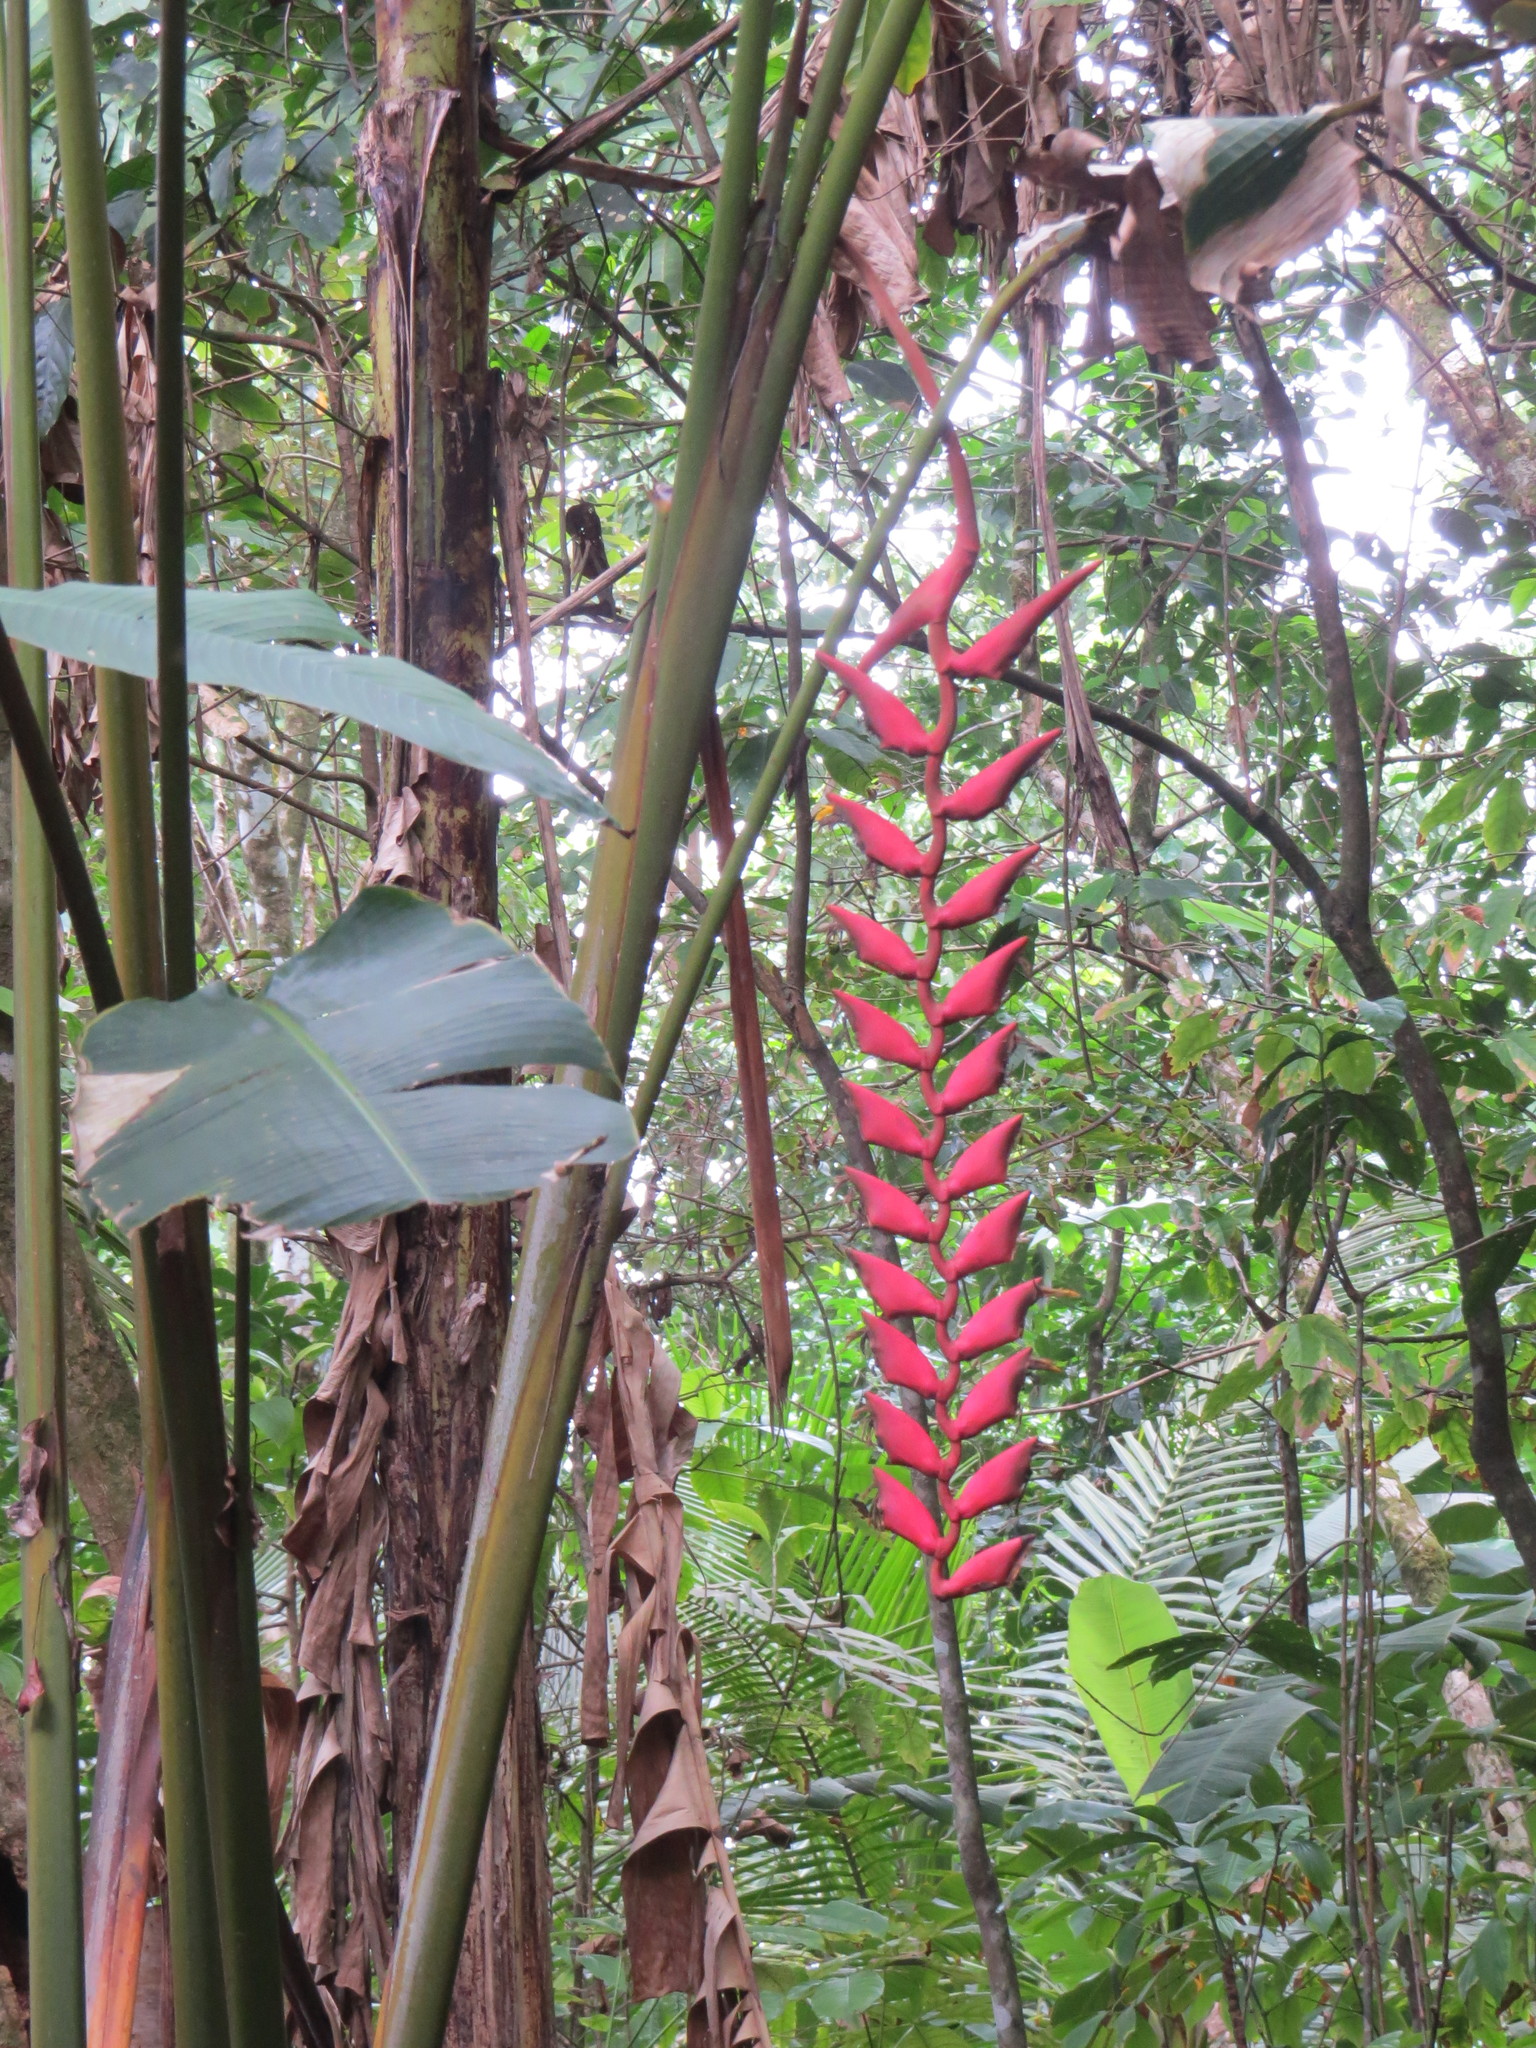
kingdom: Plantae
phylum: Tracheophyta
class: Liliopsida
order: Zingiberales
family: Heliconiaceae
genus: Heliconia
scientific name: Heliconia stilesii
